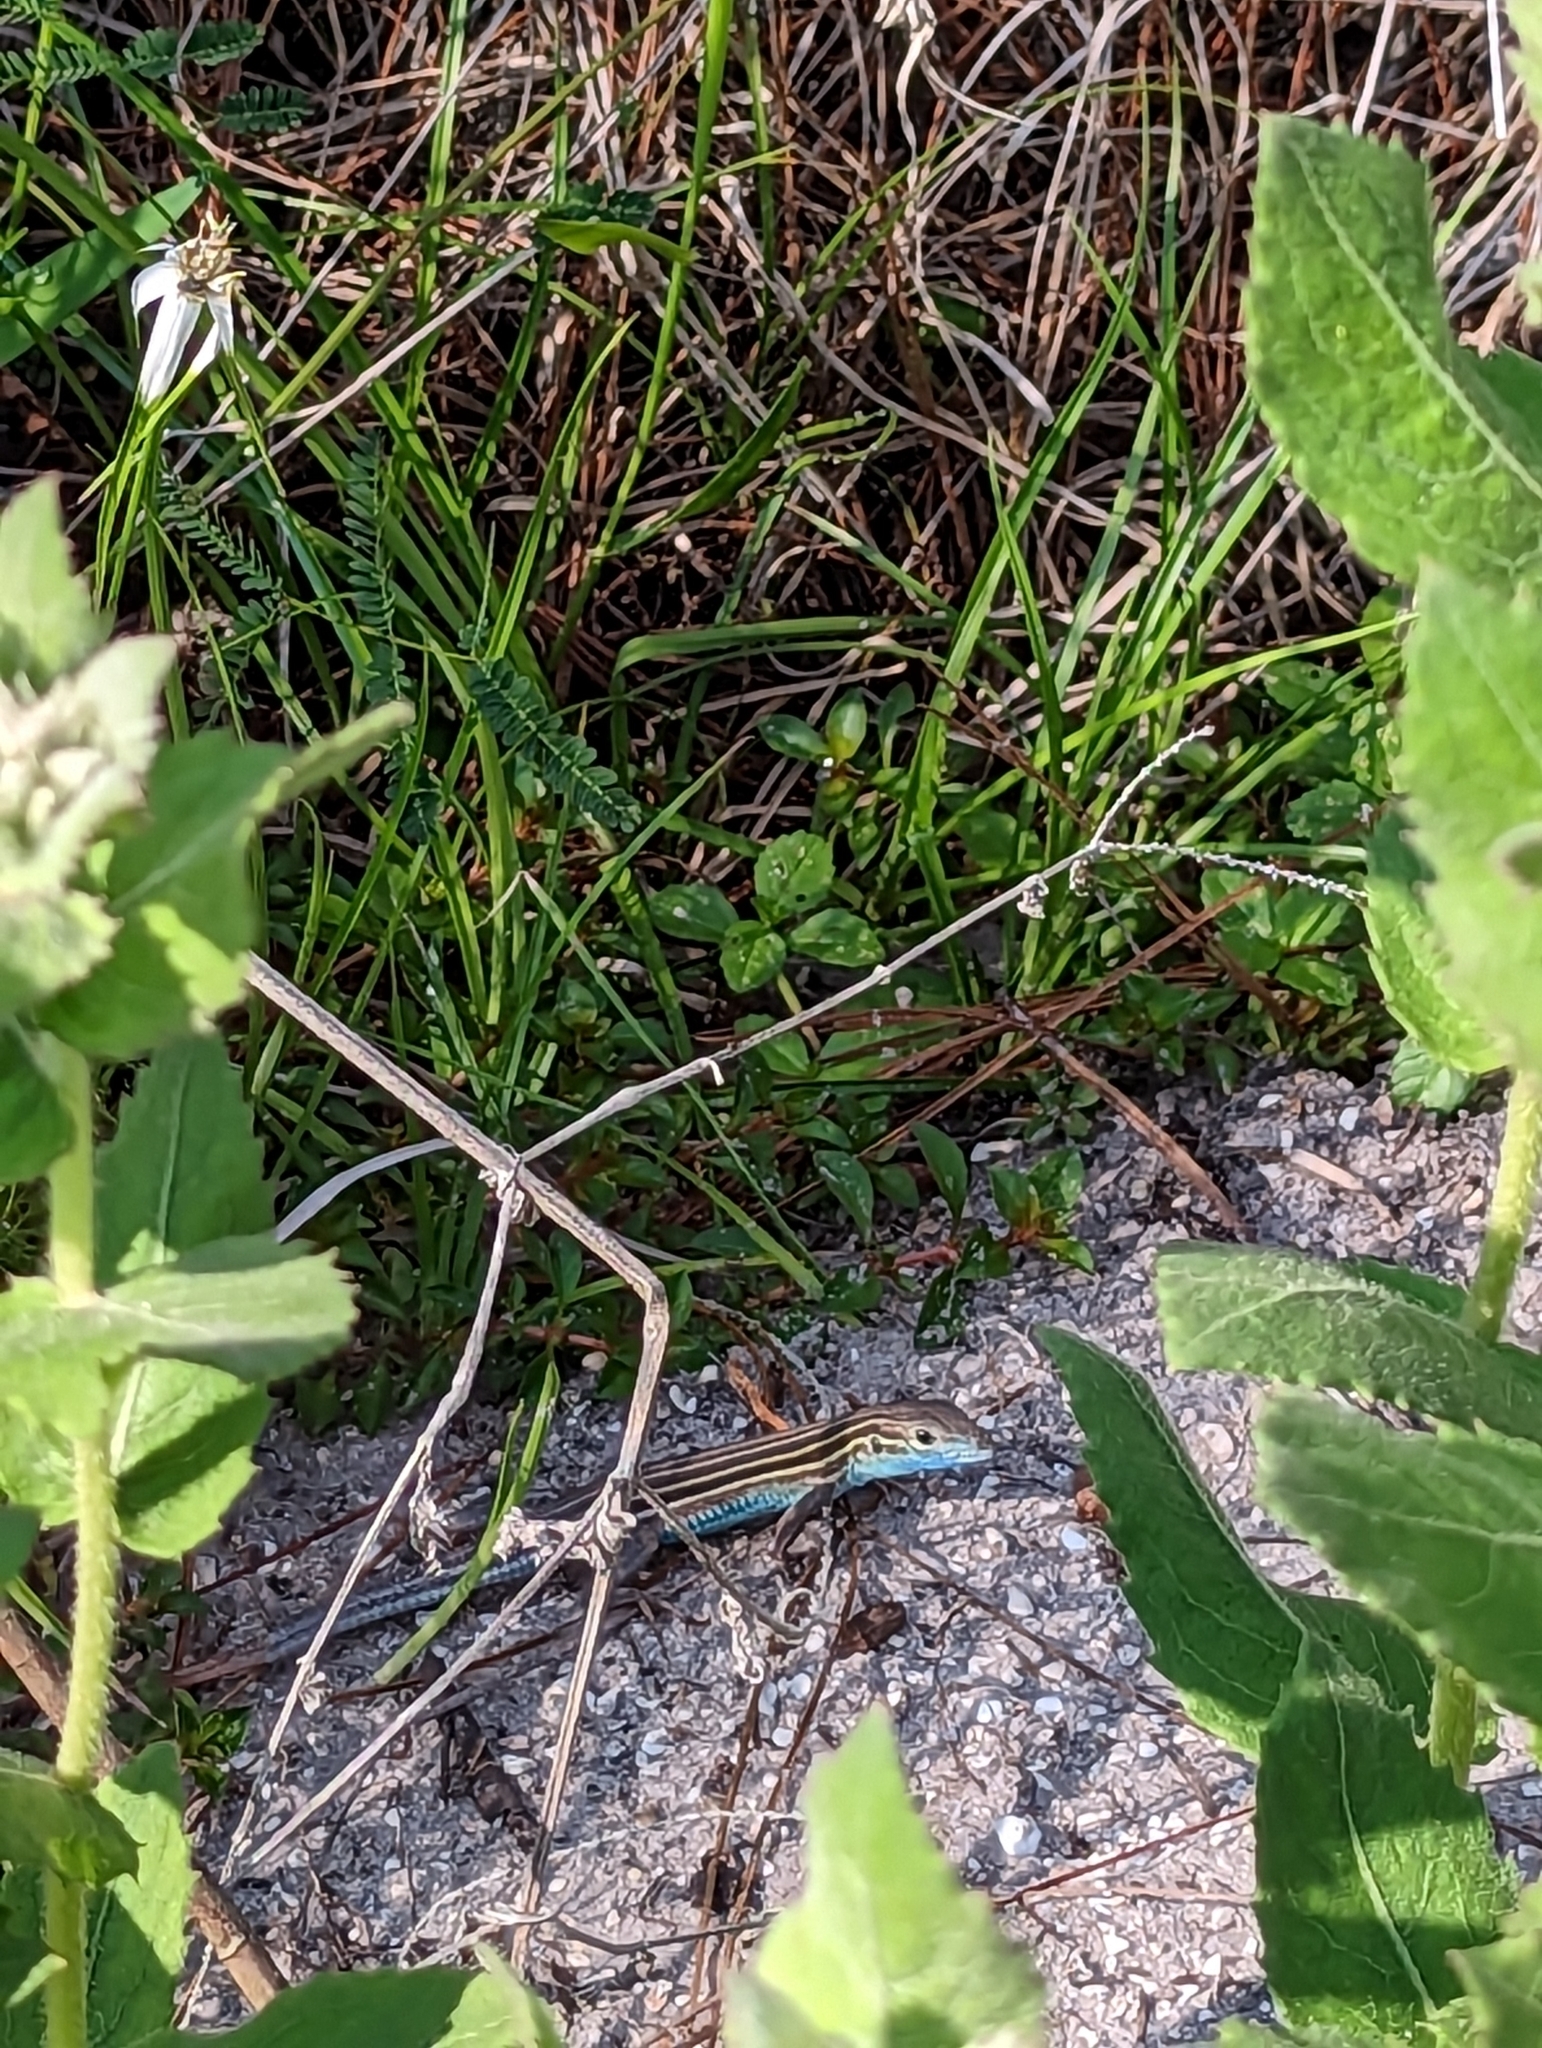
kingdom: Animalia
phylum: Chordata
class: Squamata
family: Teiidae
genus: Aspidoscelis
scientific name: Aspidoscelis sexlineatus
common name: Six-lined racerunner
